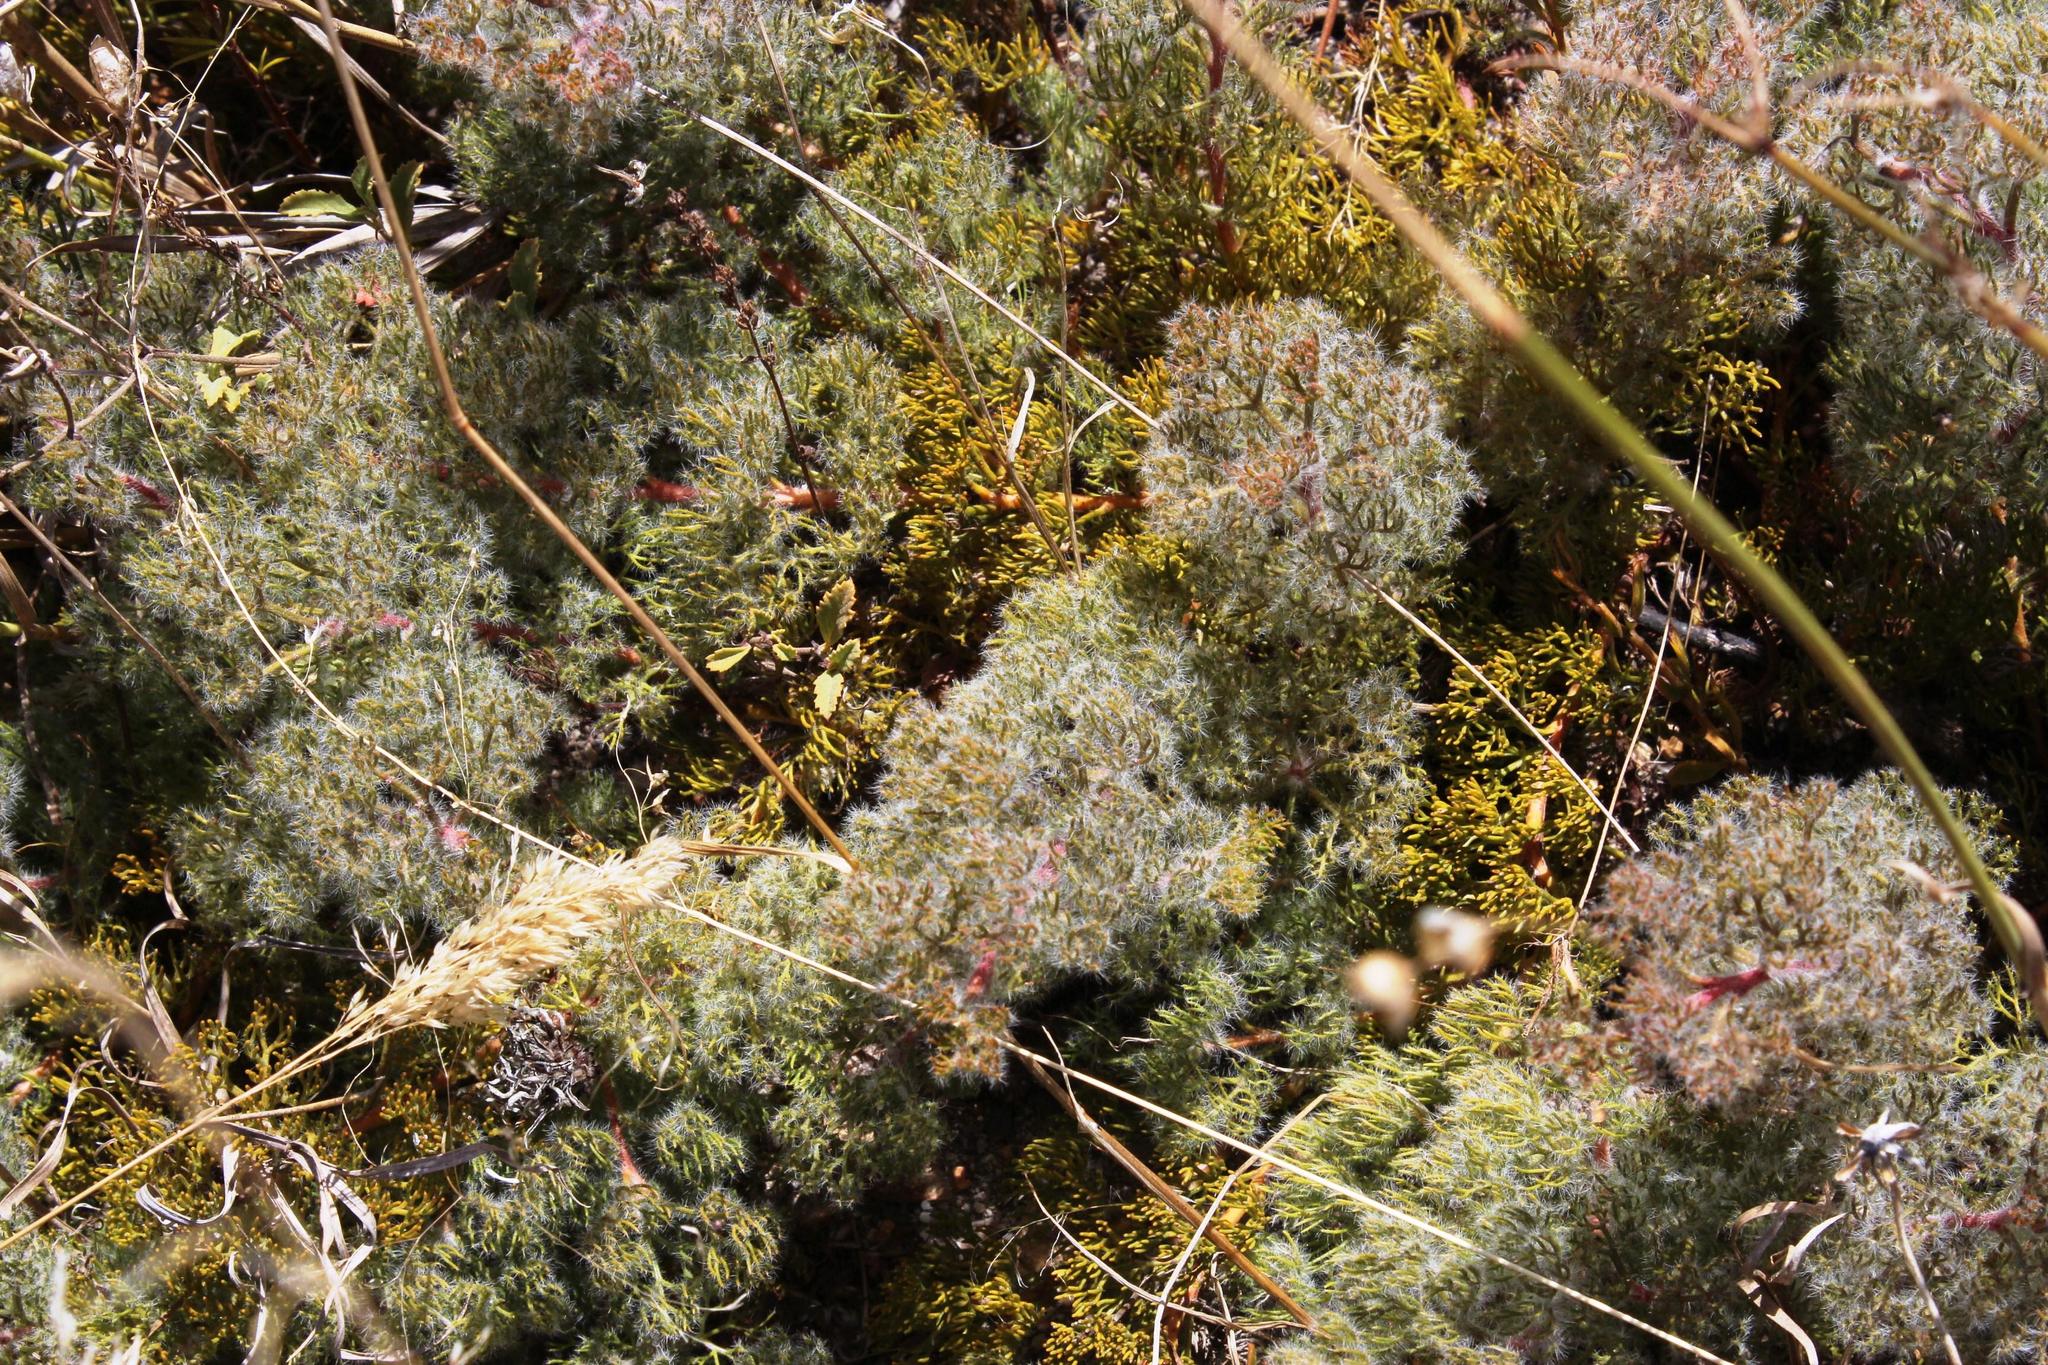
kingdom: Plantae
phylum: Tracheophyta
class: Magnoliopsida
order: Proteales
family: Proteaceae
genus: Serruria
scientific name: Serruria incrassata
